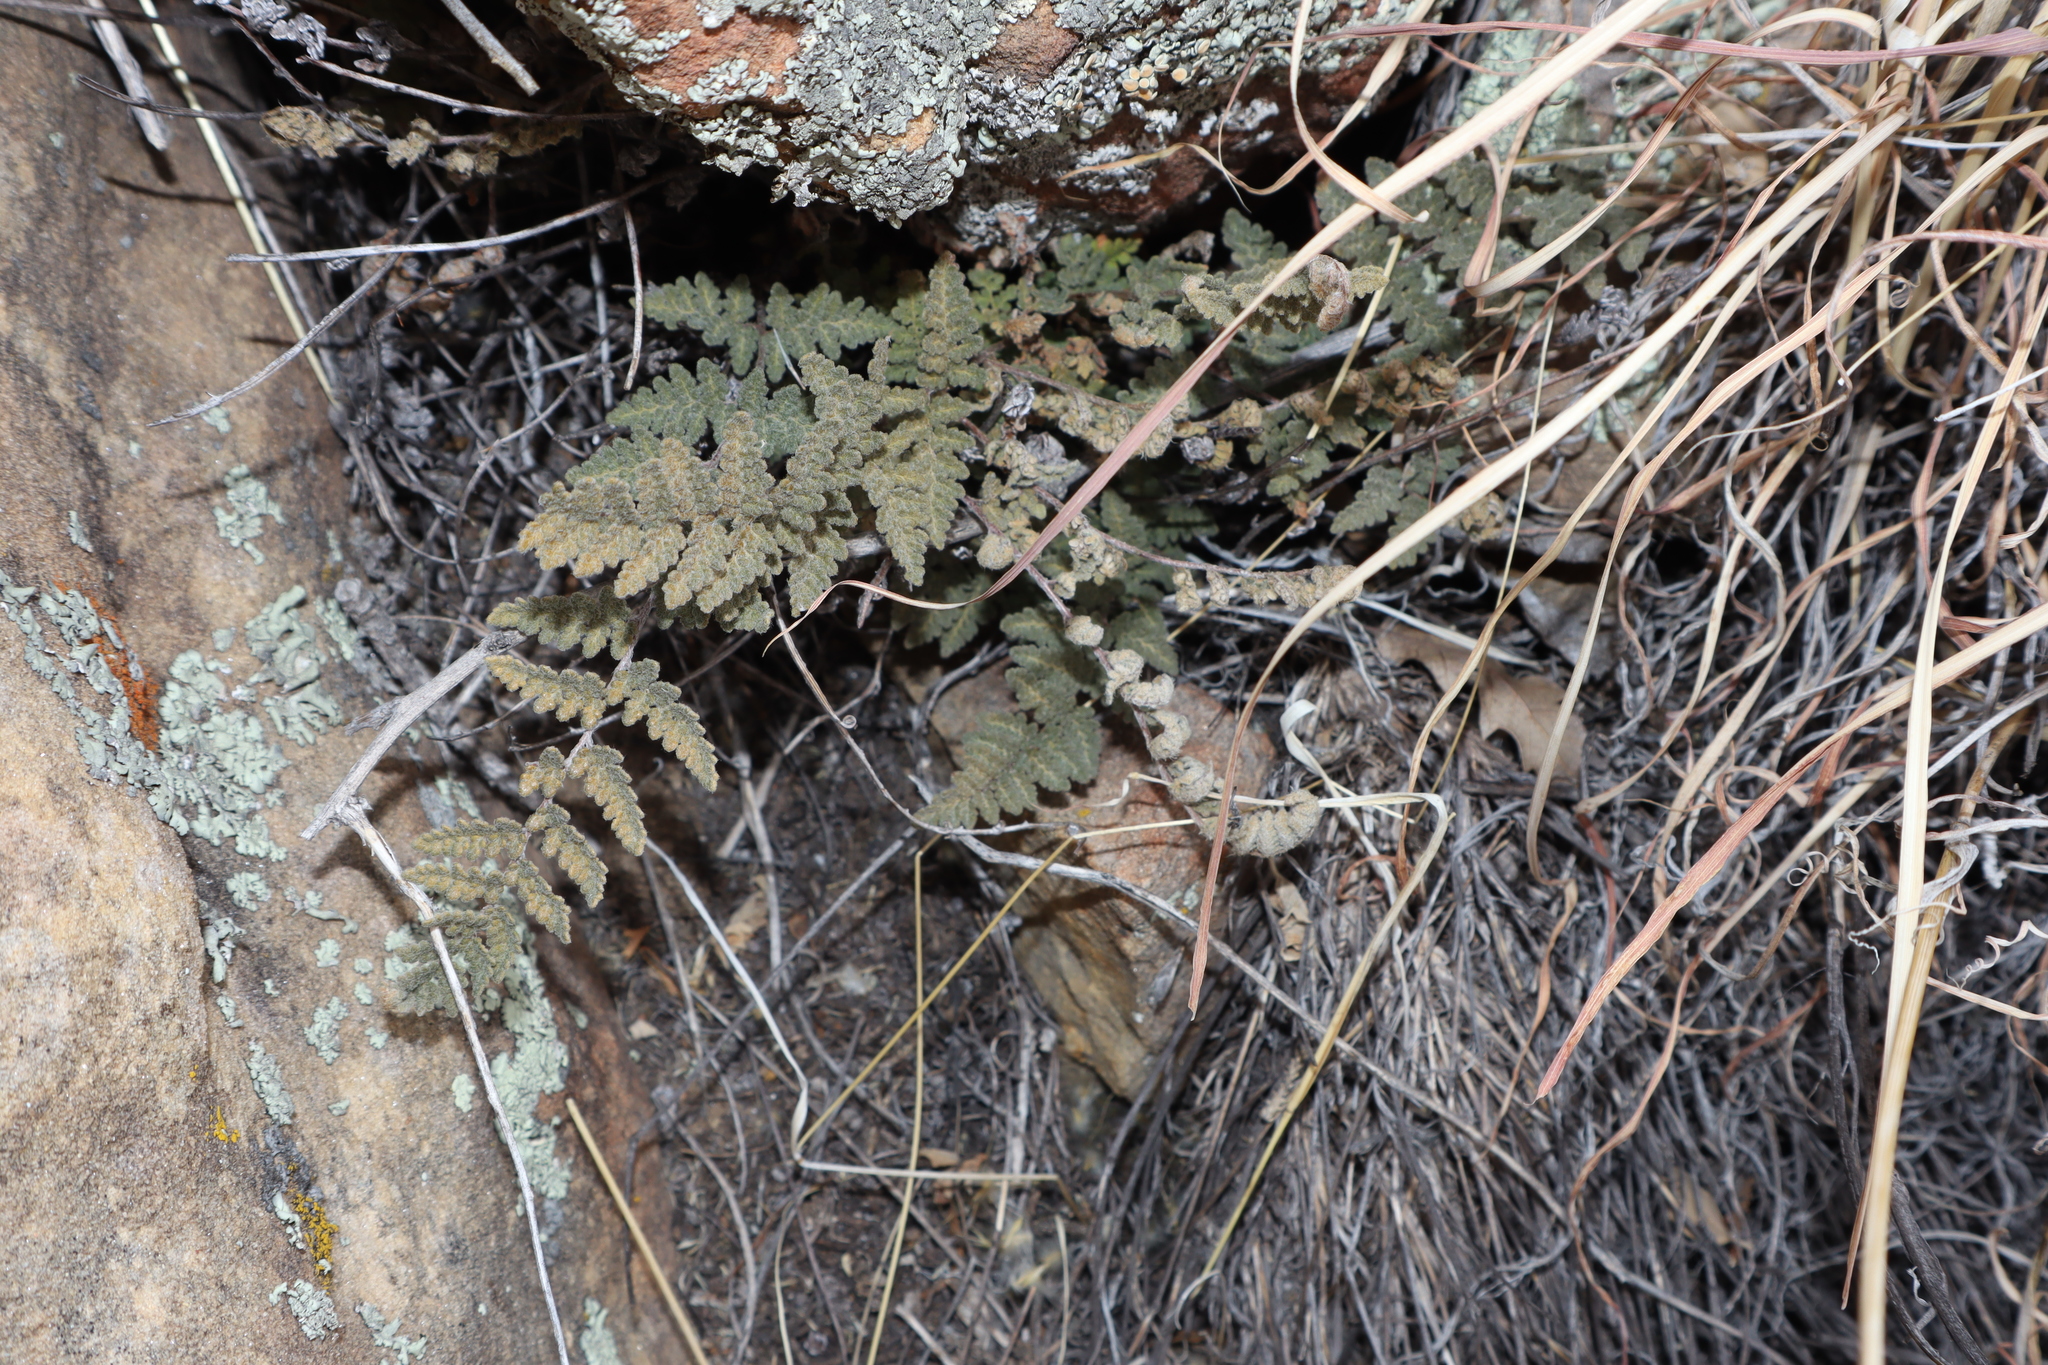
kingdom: Plantae
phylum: Tracheophyta
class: Polypodiopsida
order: Polypodiales
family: Pteridaceae
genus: Myriopteris
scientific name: Myriopteris rufa
